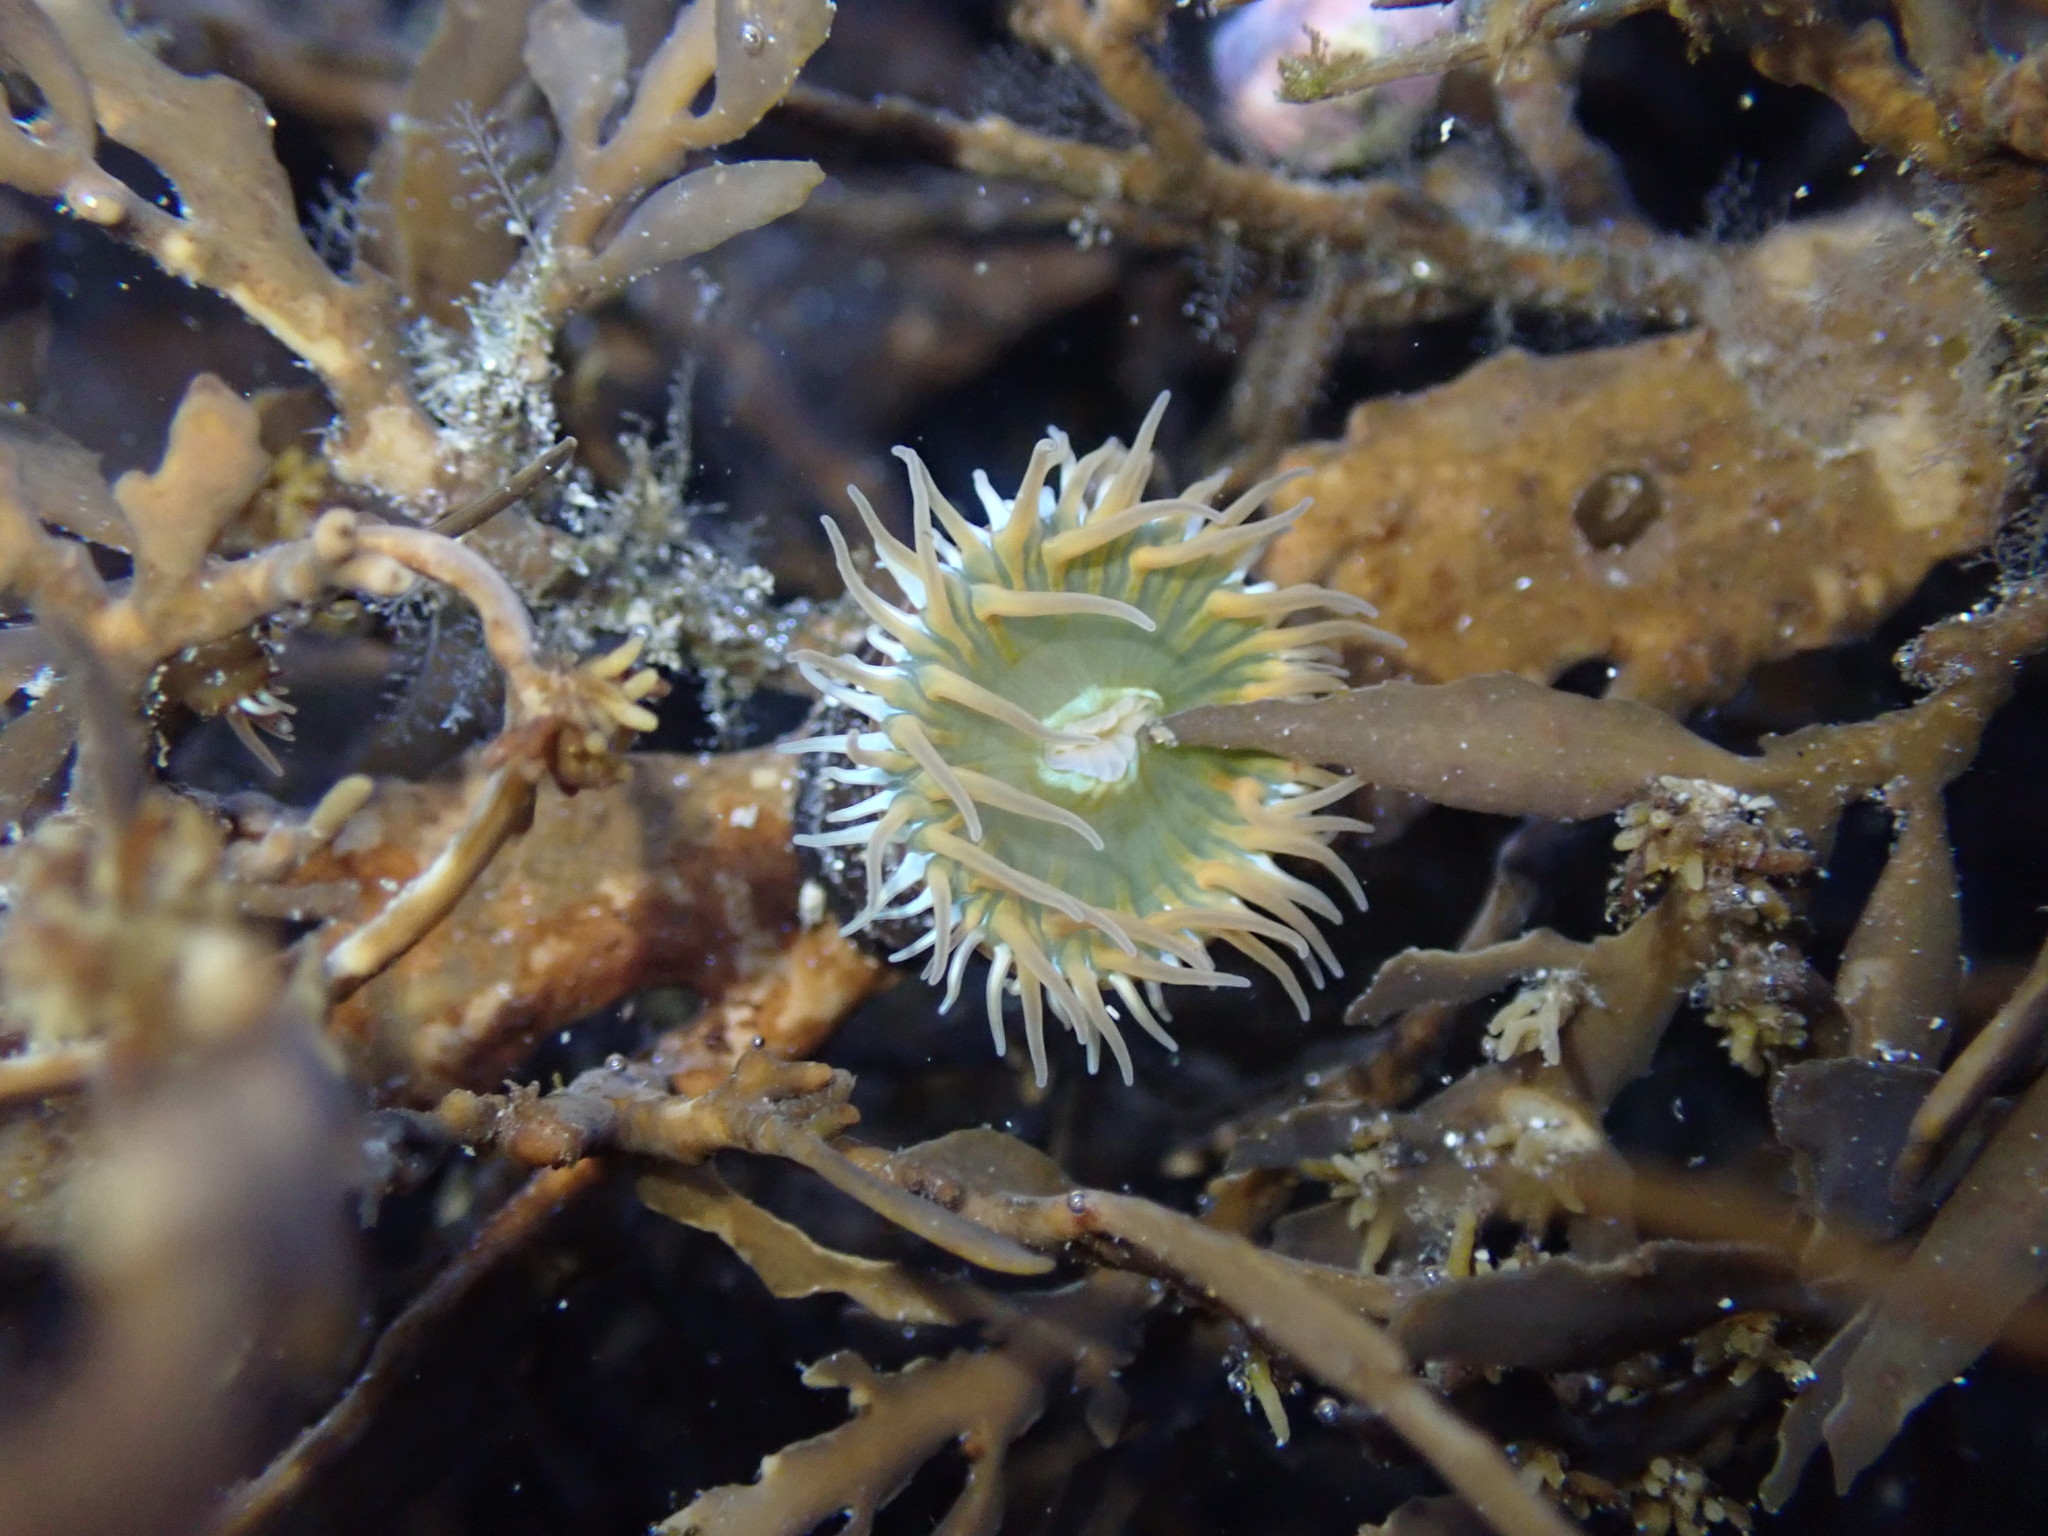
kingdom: Animalia
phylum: Cnidaria
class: Anthozoa
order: Actiniaria
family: Hormathiidae
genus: Handactis
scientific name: Handactis nutrix
